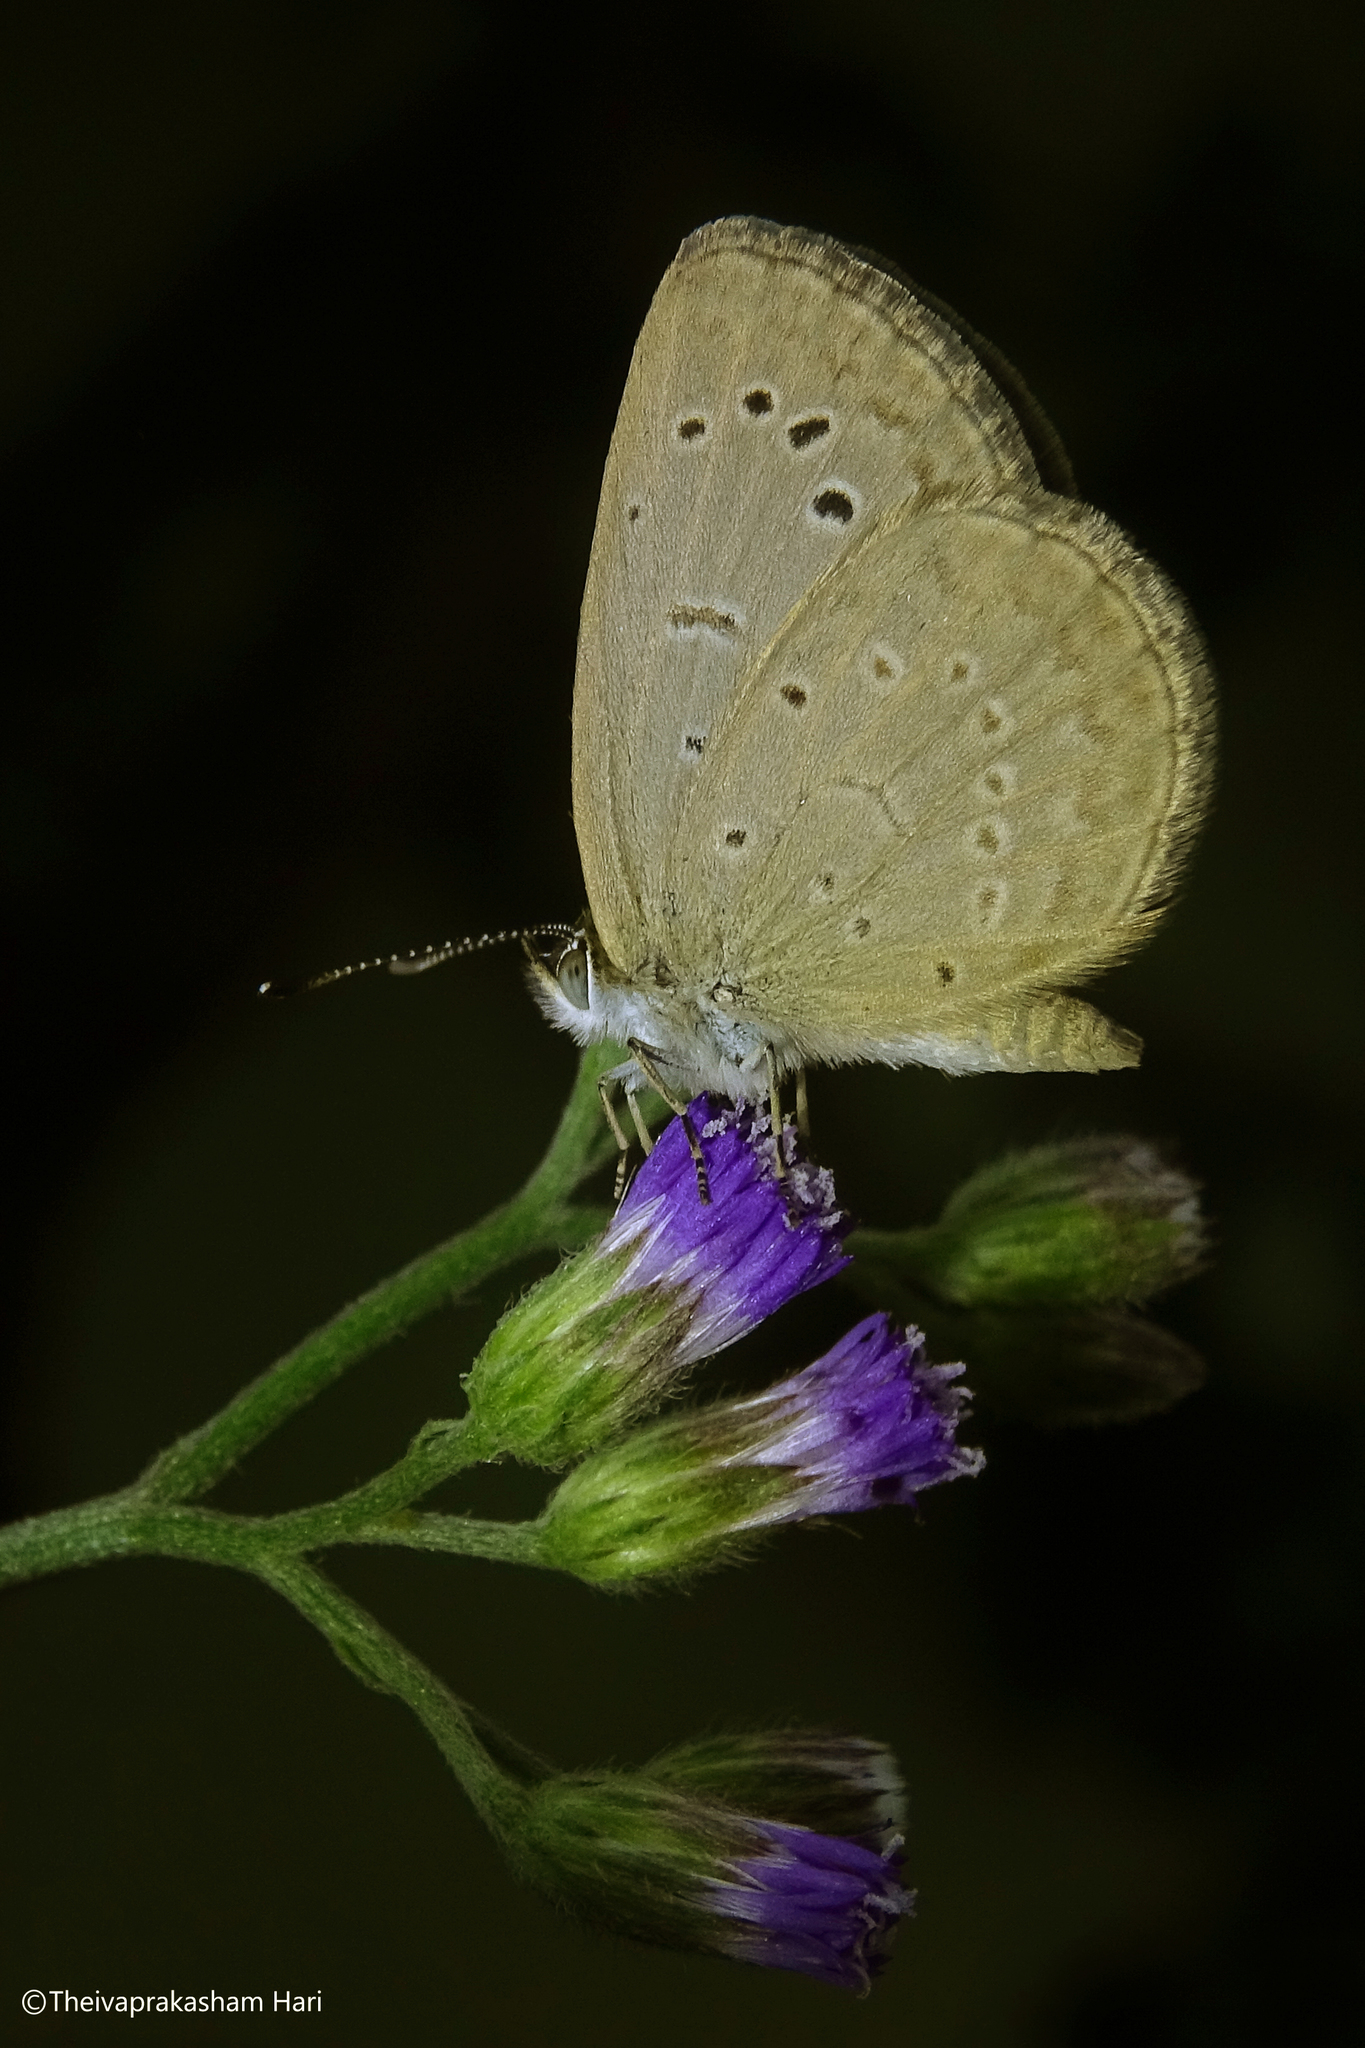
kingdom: Animalia
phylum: Arthropoda
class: Insecta
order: Lepidoptera
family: Lycaenidae
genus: Pseudozizeeria
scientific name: Pseudozizeeria maha
